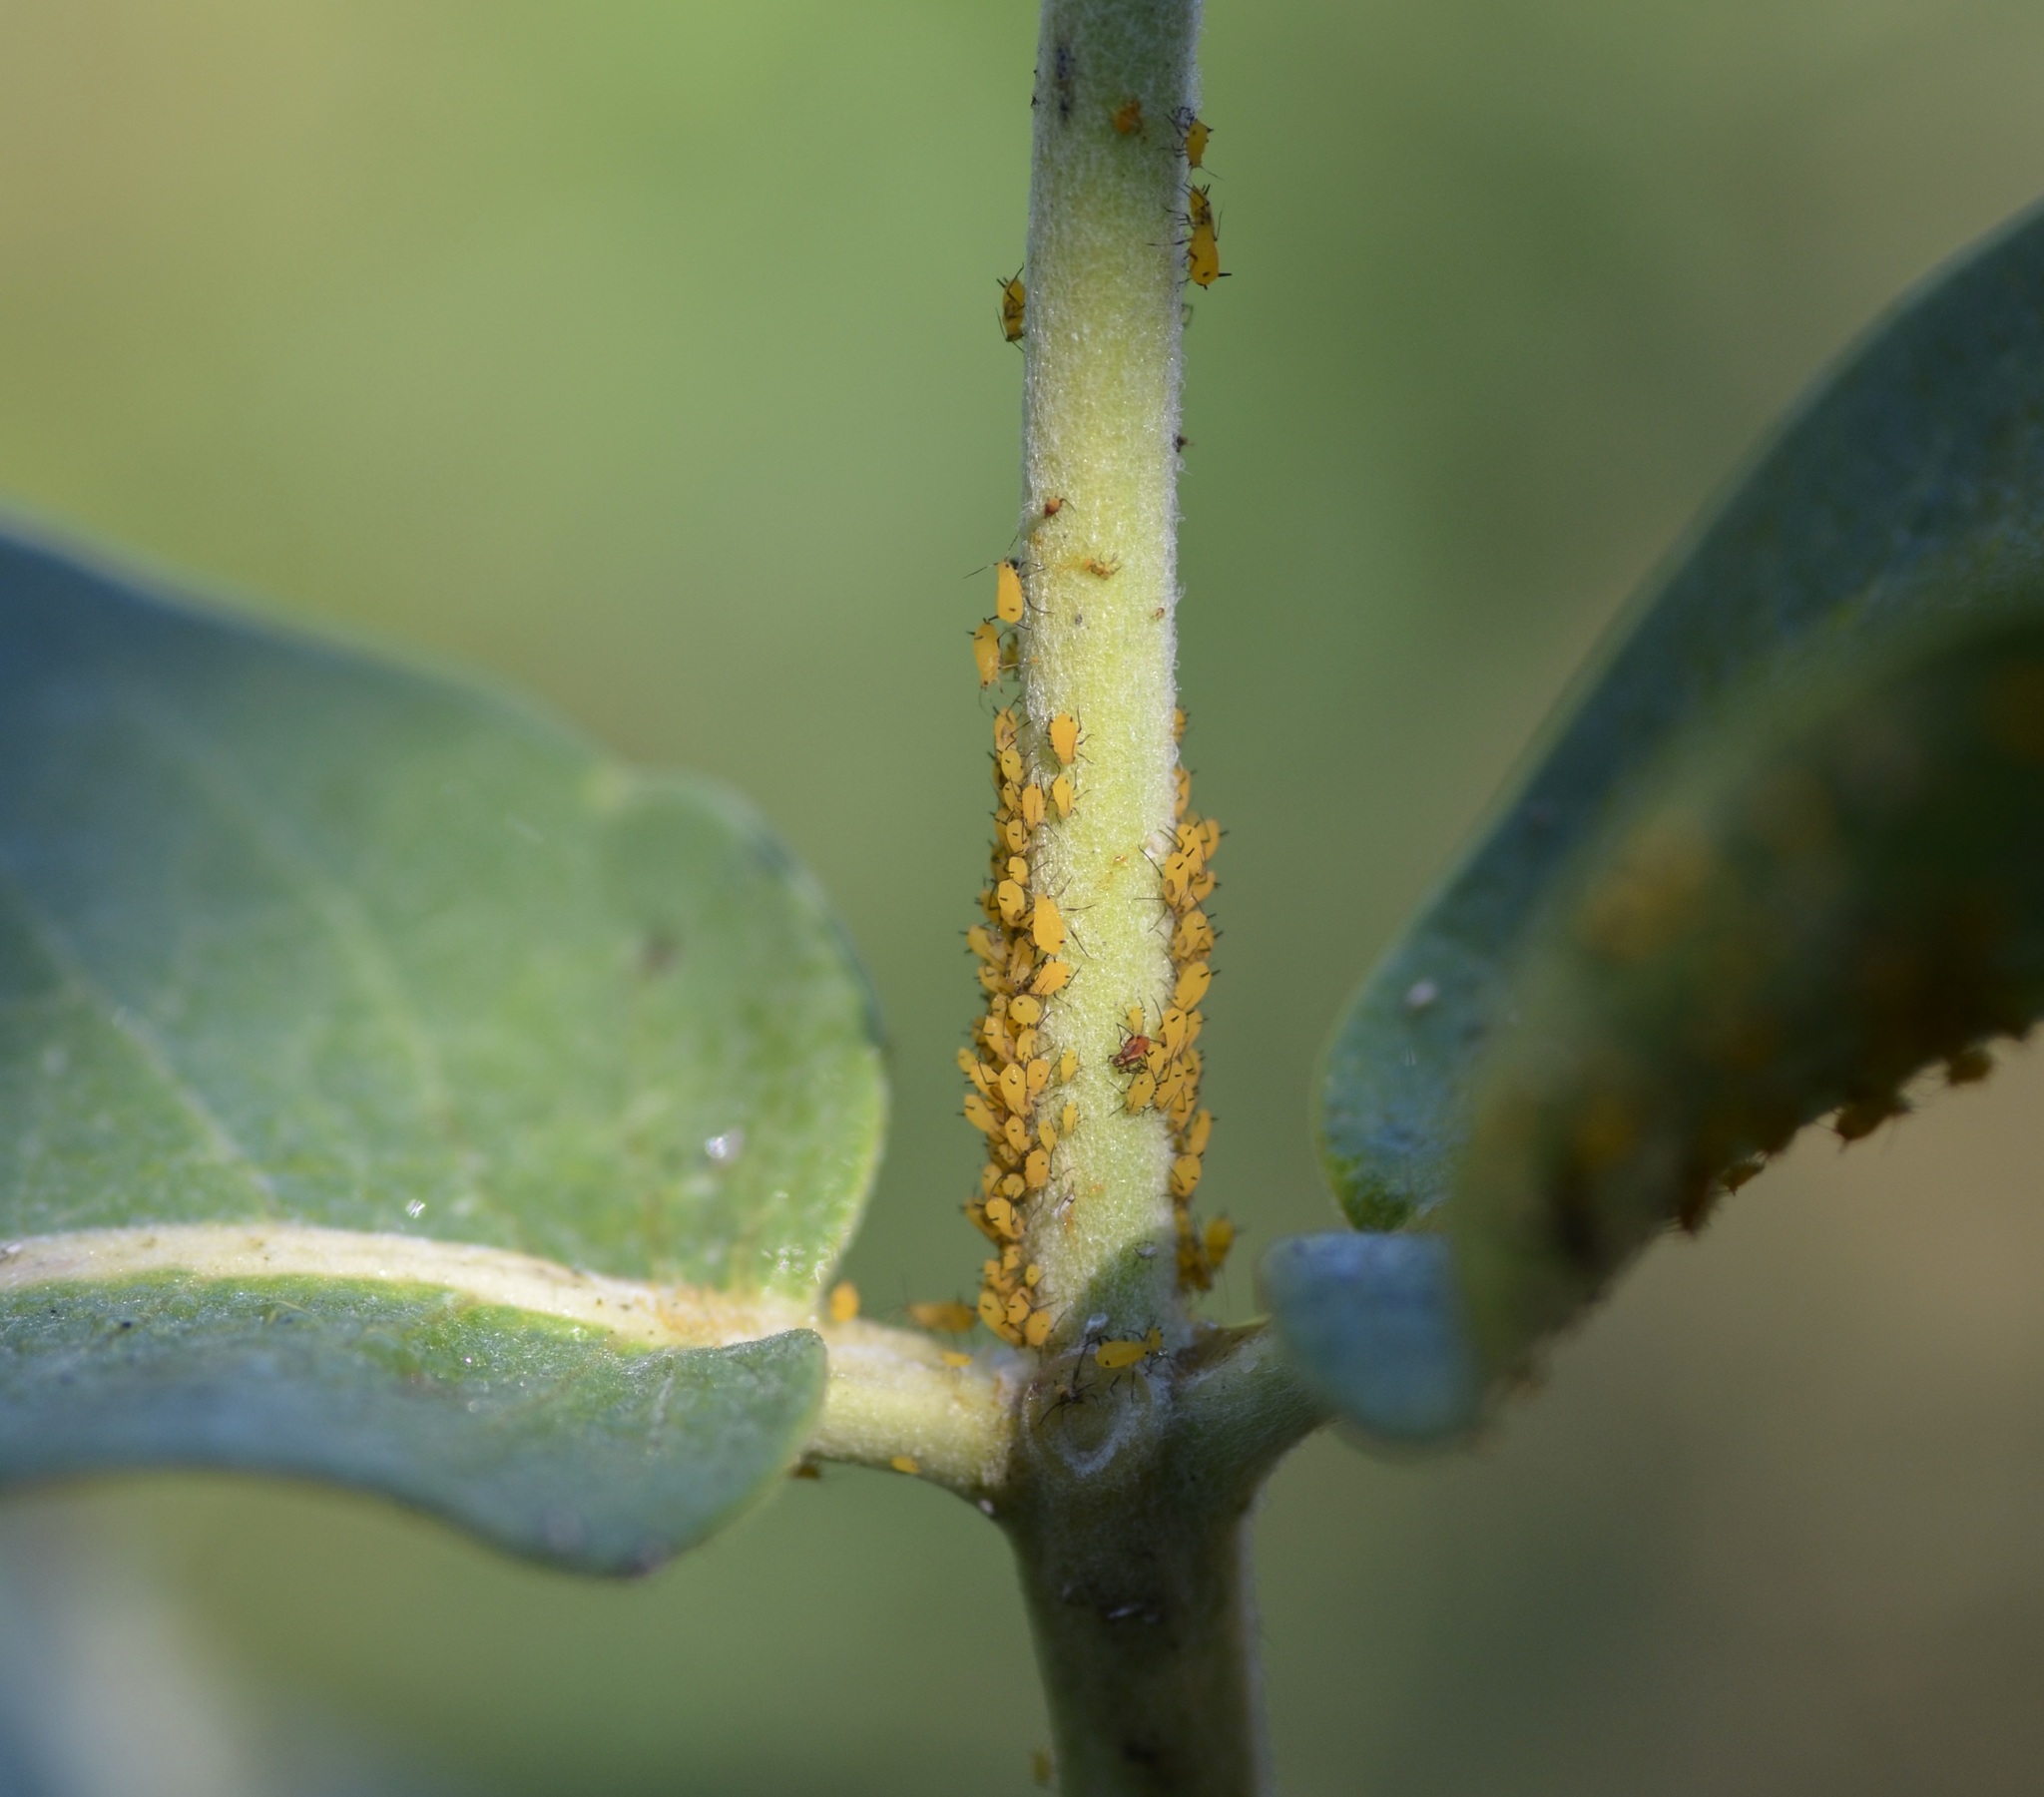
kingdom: Animalia
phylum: Arthropoda
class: Insecta
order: Hemiptera
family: Aphididae
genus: Aphis
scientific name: Aphis nerii
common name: Oleander aphid
